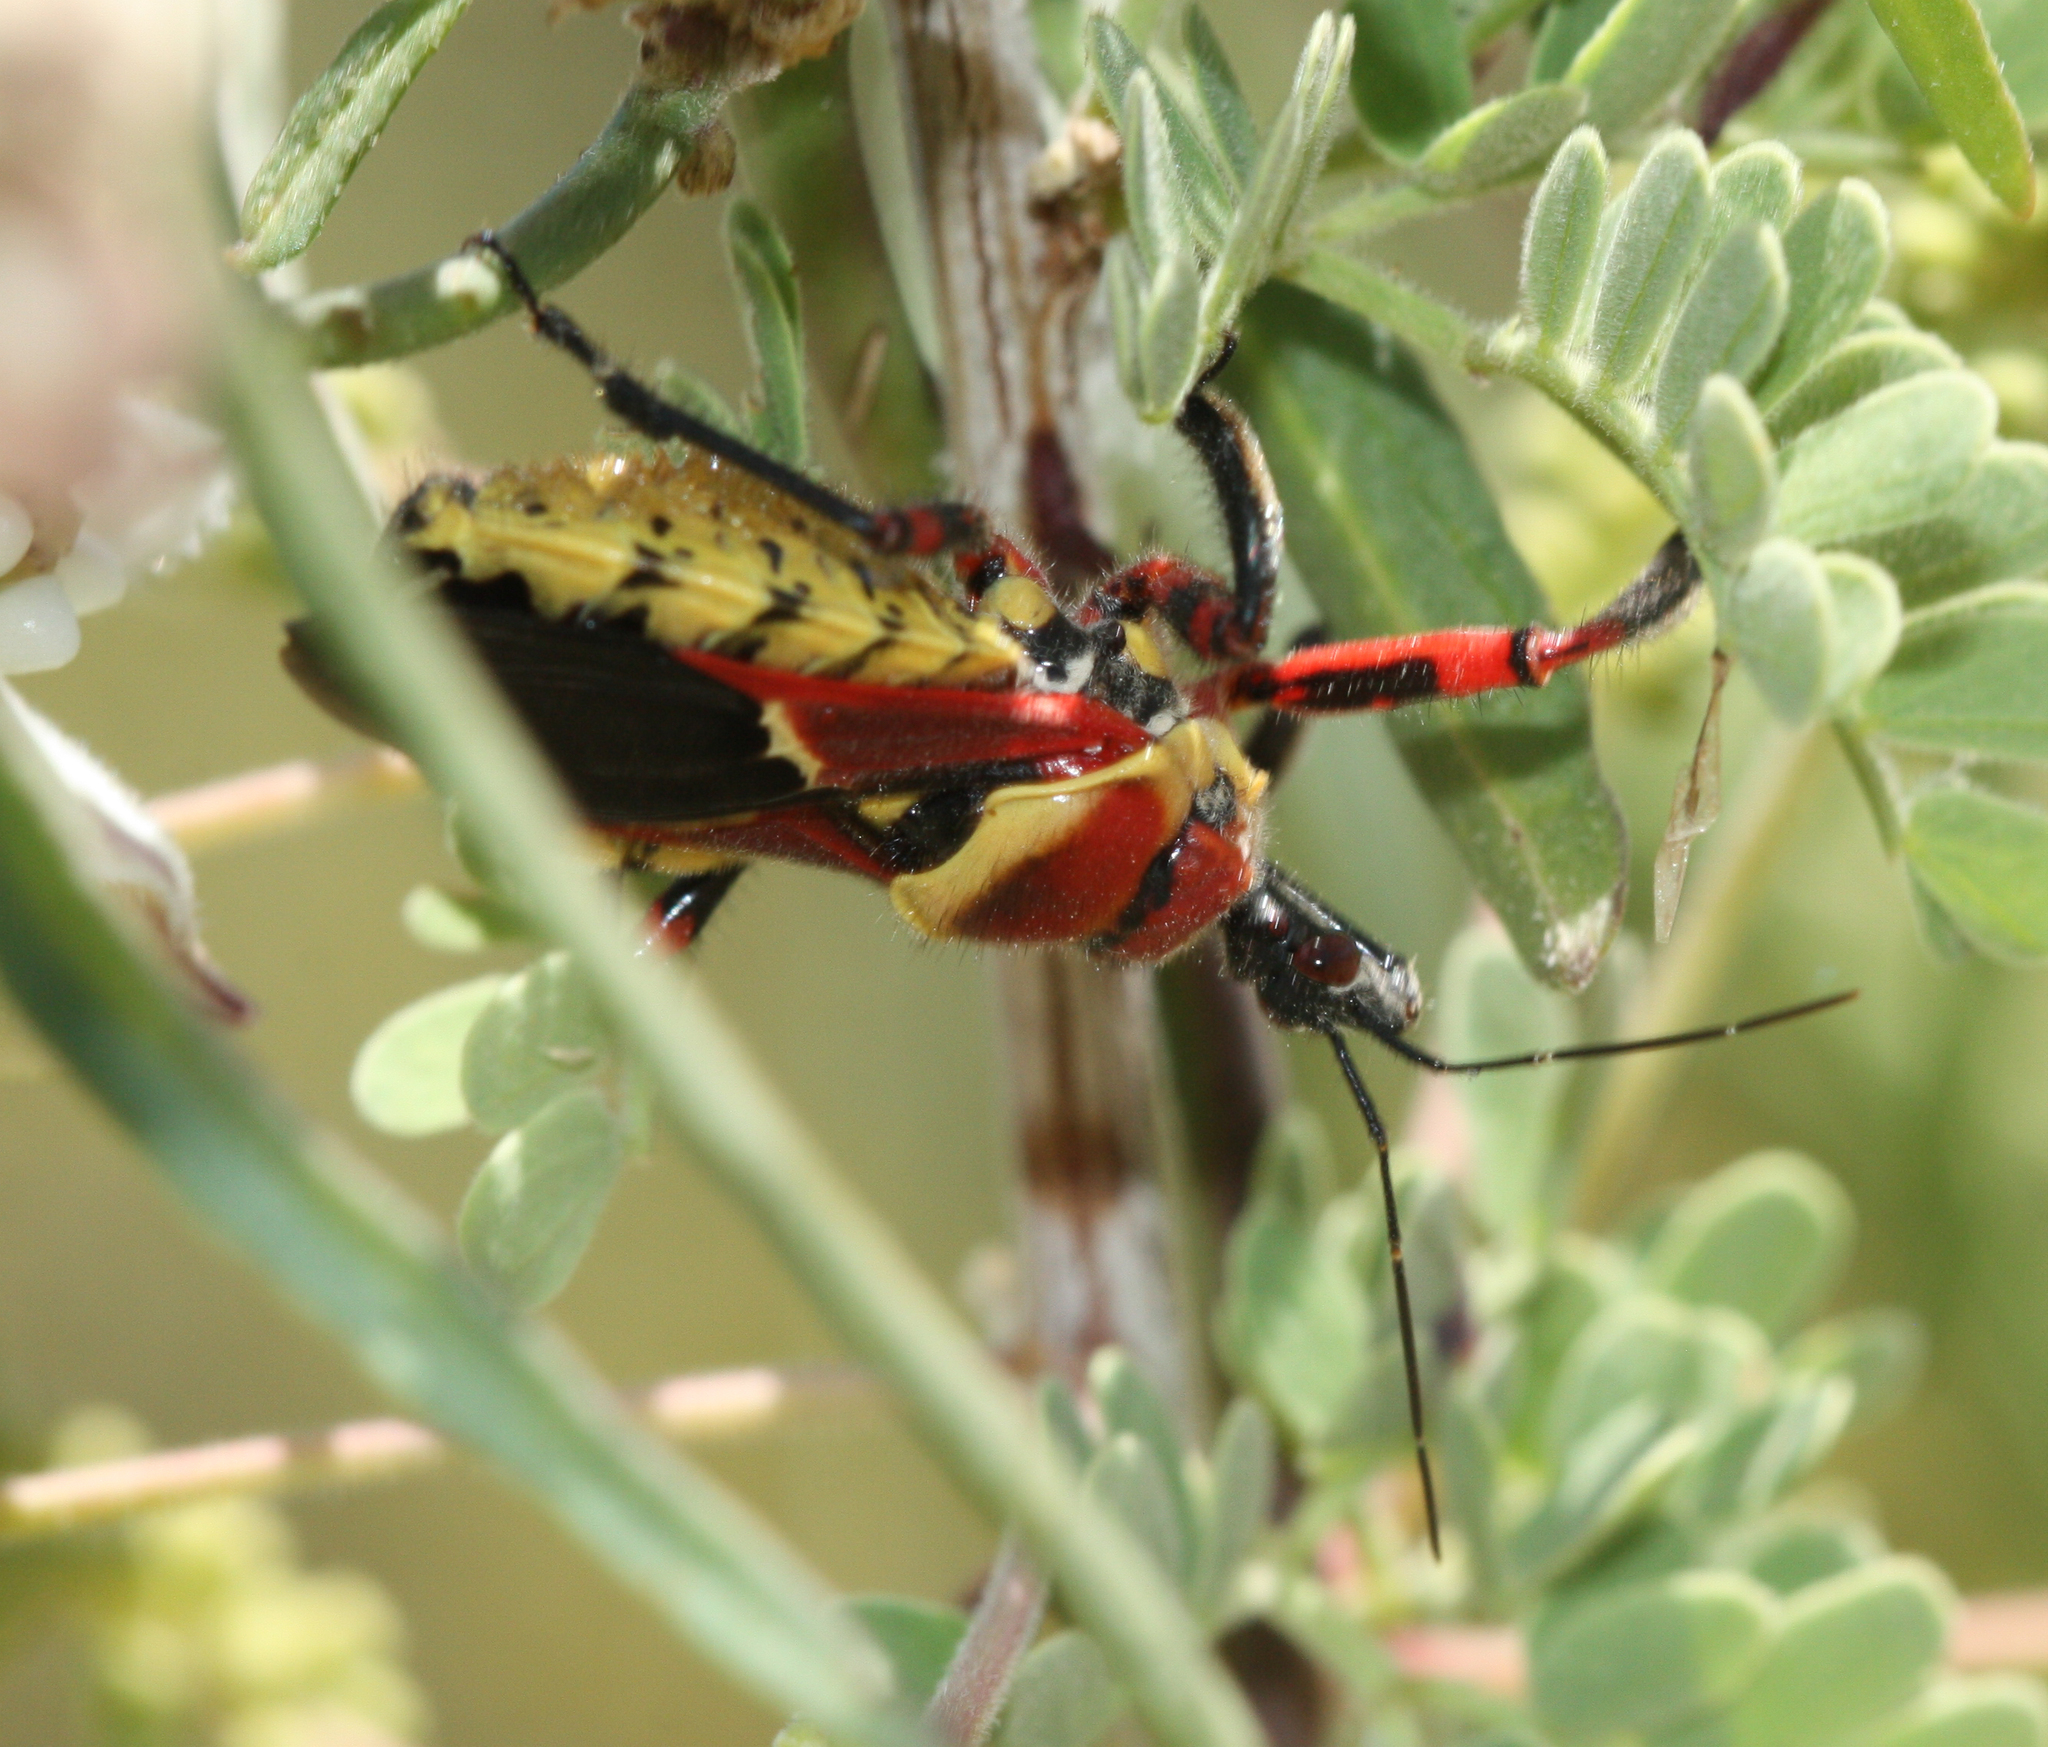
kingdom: Animalia
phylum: Arthropoda
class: Insecta
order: Hemiptera
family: Reduviidae
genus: Apiomerus
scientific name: Apiomerus flaviventris
